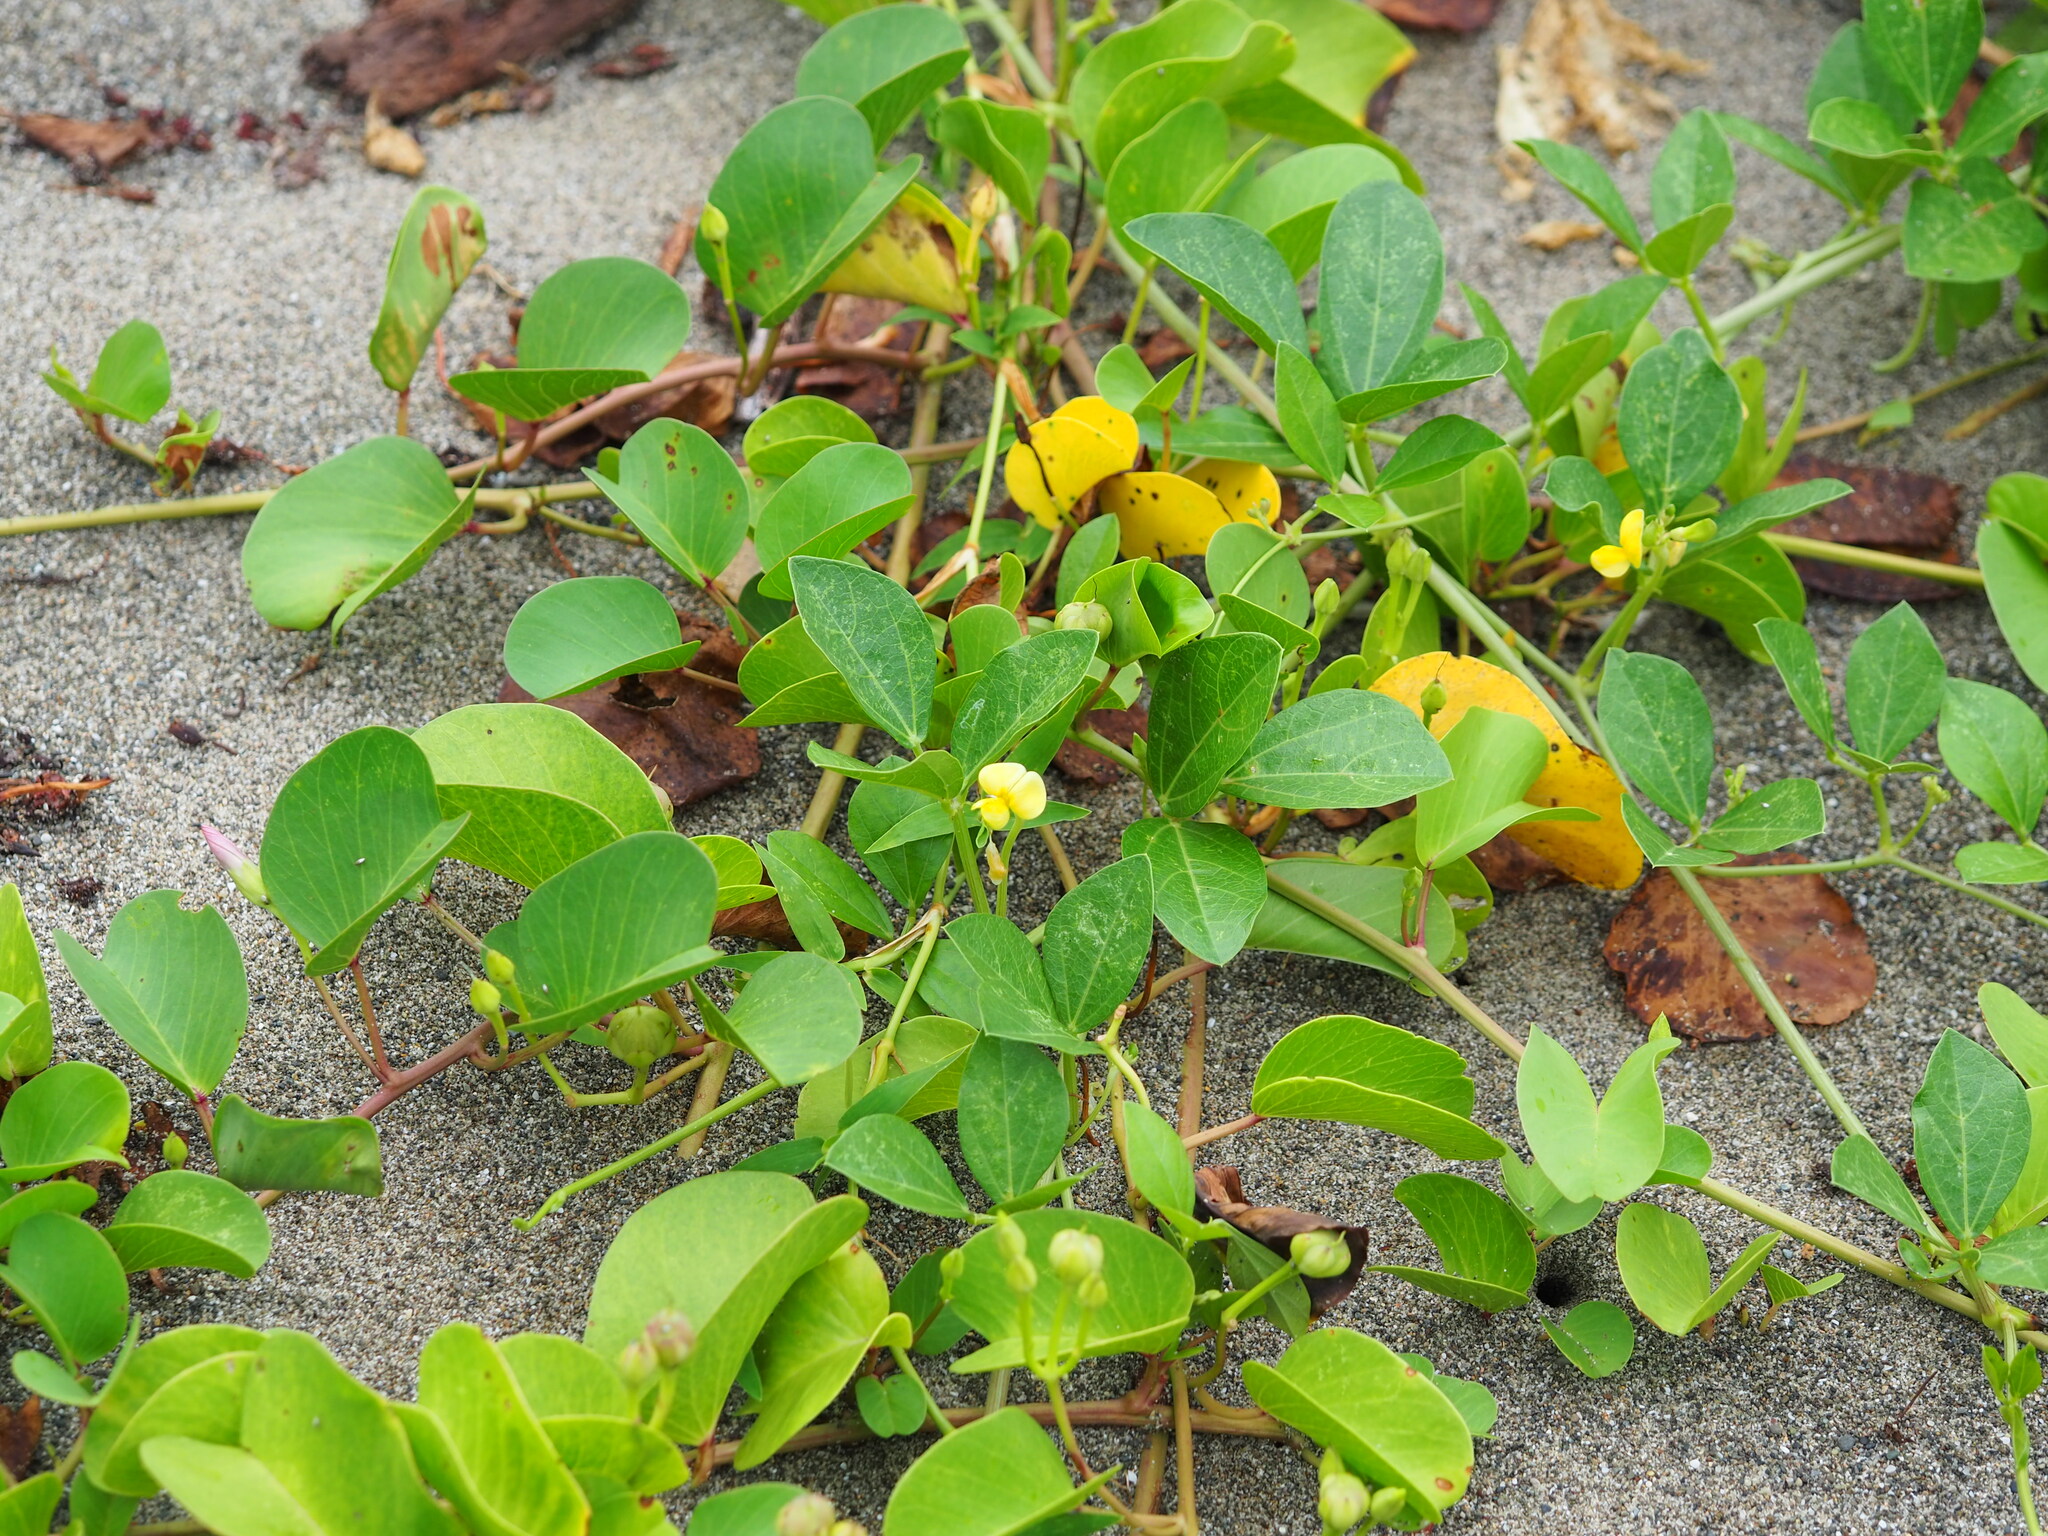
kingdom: Plantae
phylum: Tracheophyta
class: Magnoliopsida
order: Fabales
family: Fabaceae
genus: Vigna
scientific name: Vigna marina
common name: Dune-bean
